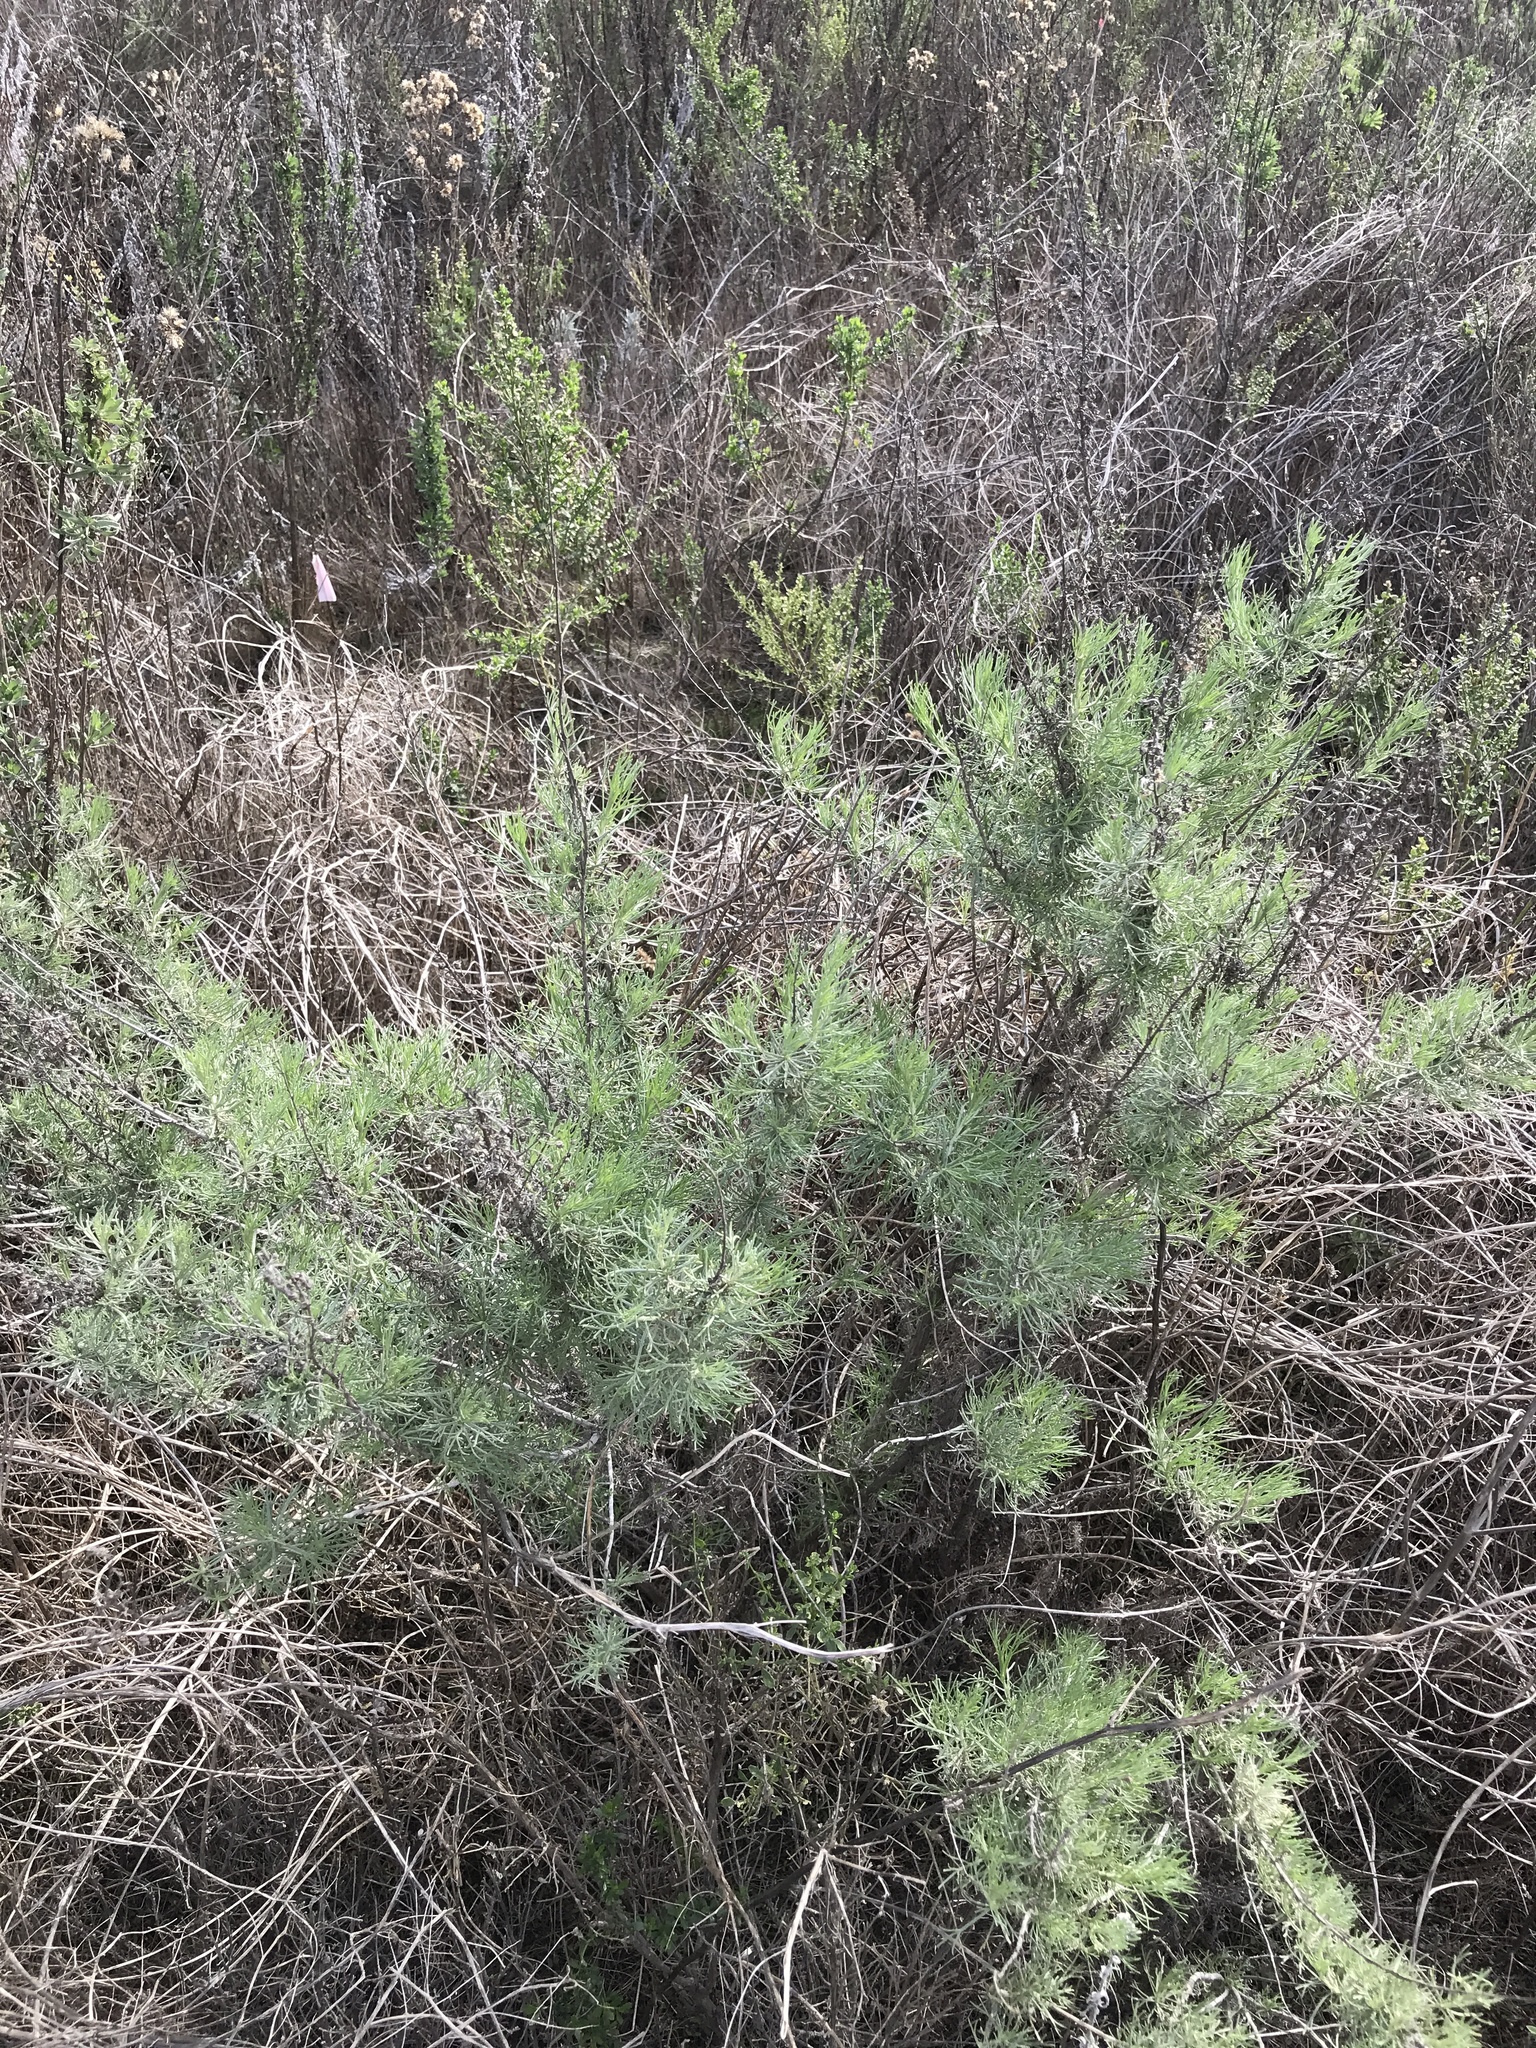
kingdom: Plantae
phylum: Tracheophyta
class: Magnoliopsida
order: Asterales
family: Asteraceae
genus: Artemisia
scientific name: Artemisia californica
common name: California sagebrush
